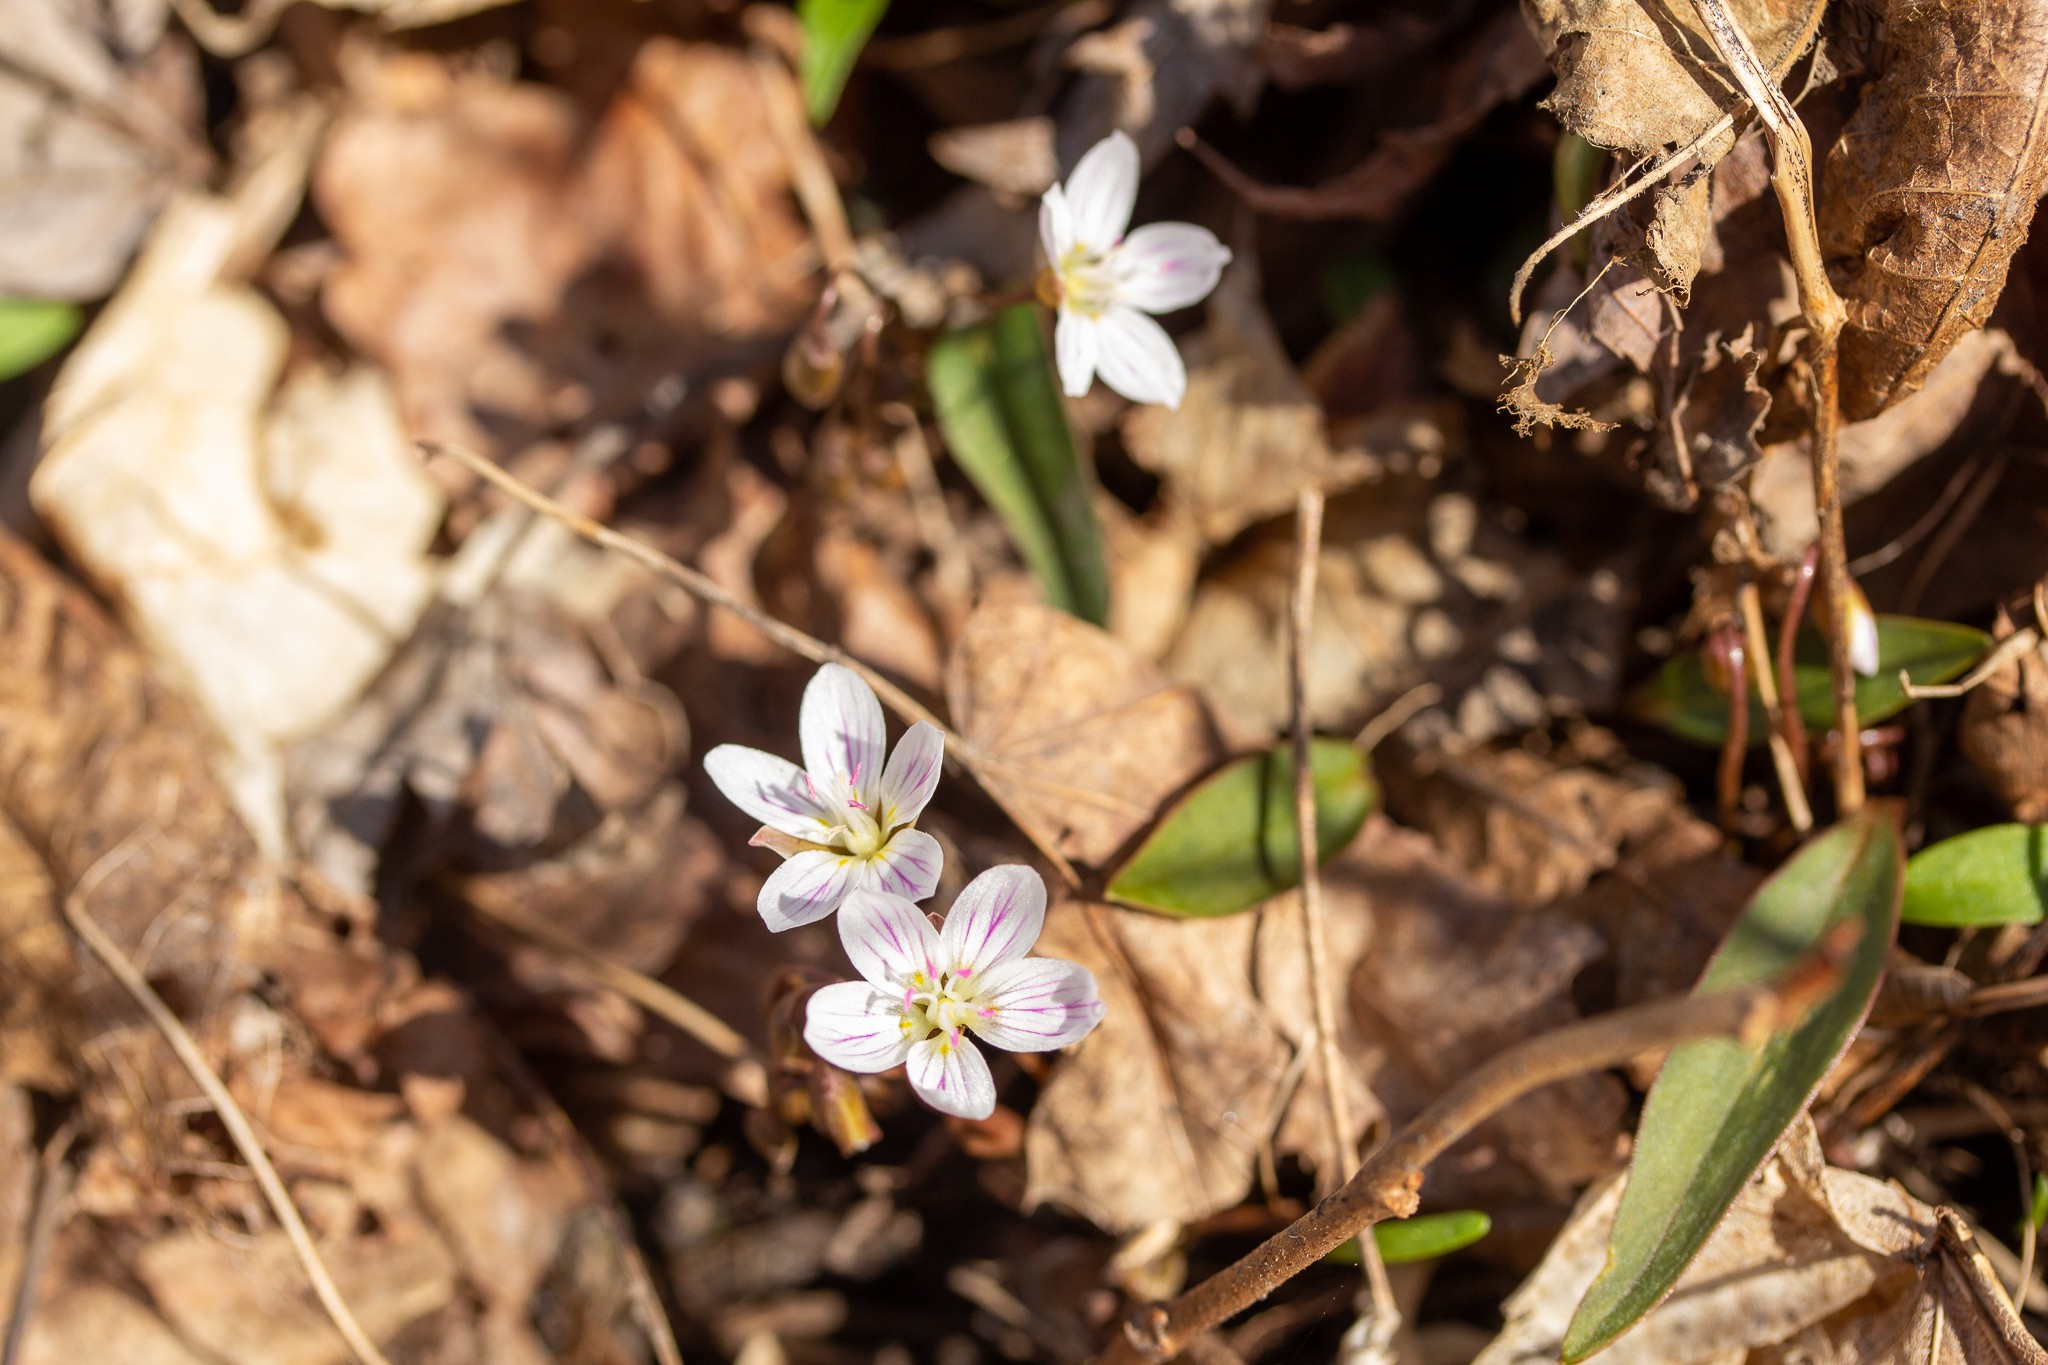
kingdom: Plantae
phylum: Tracheophyta
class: Magnoliopsida
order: Caryophyllales
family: Montiaceae
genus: Claytonia
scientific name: Claytonia caroliniana
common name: Carolina spring beauty
